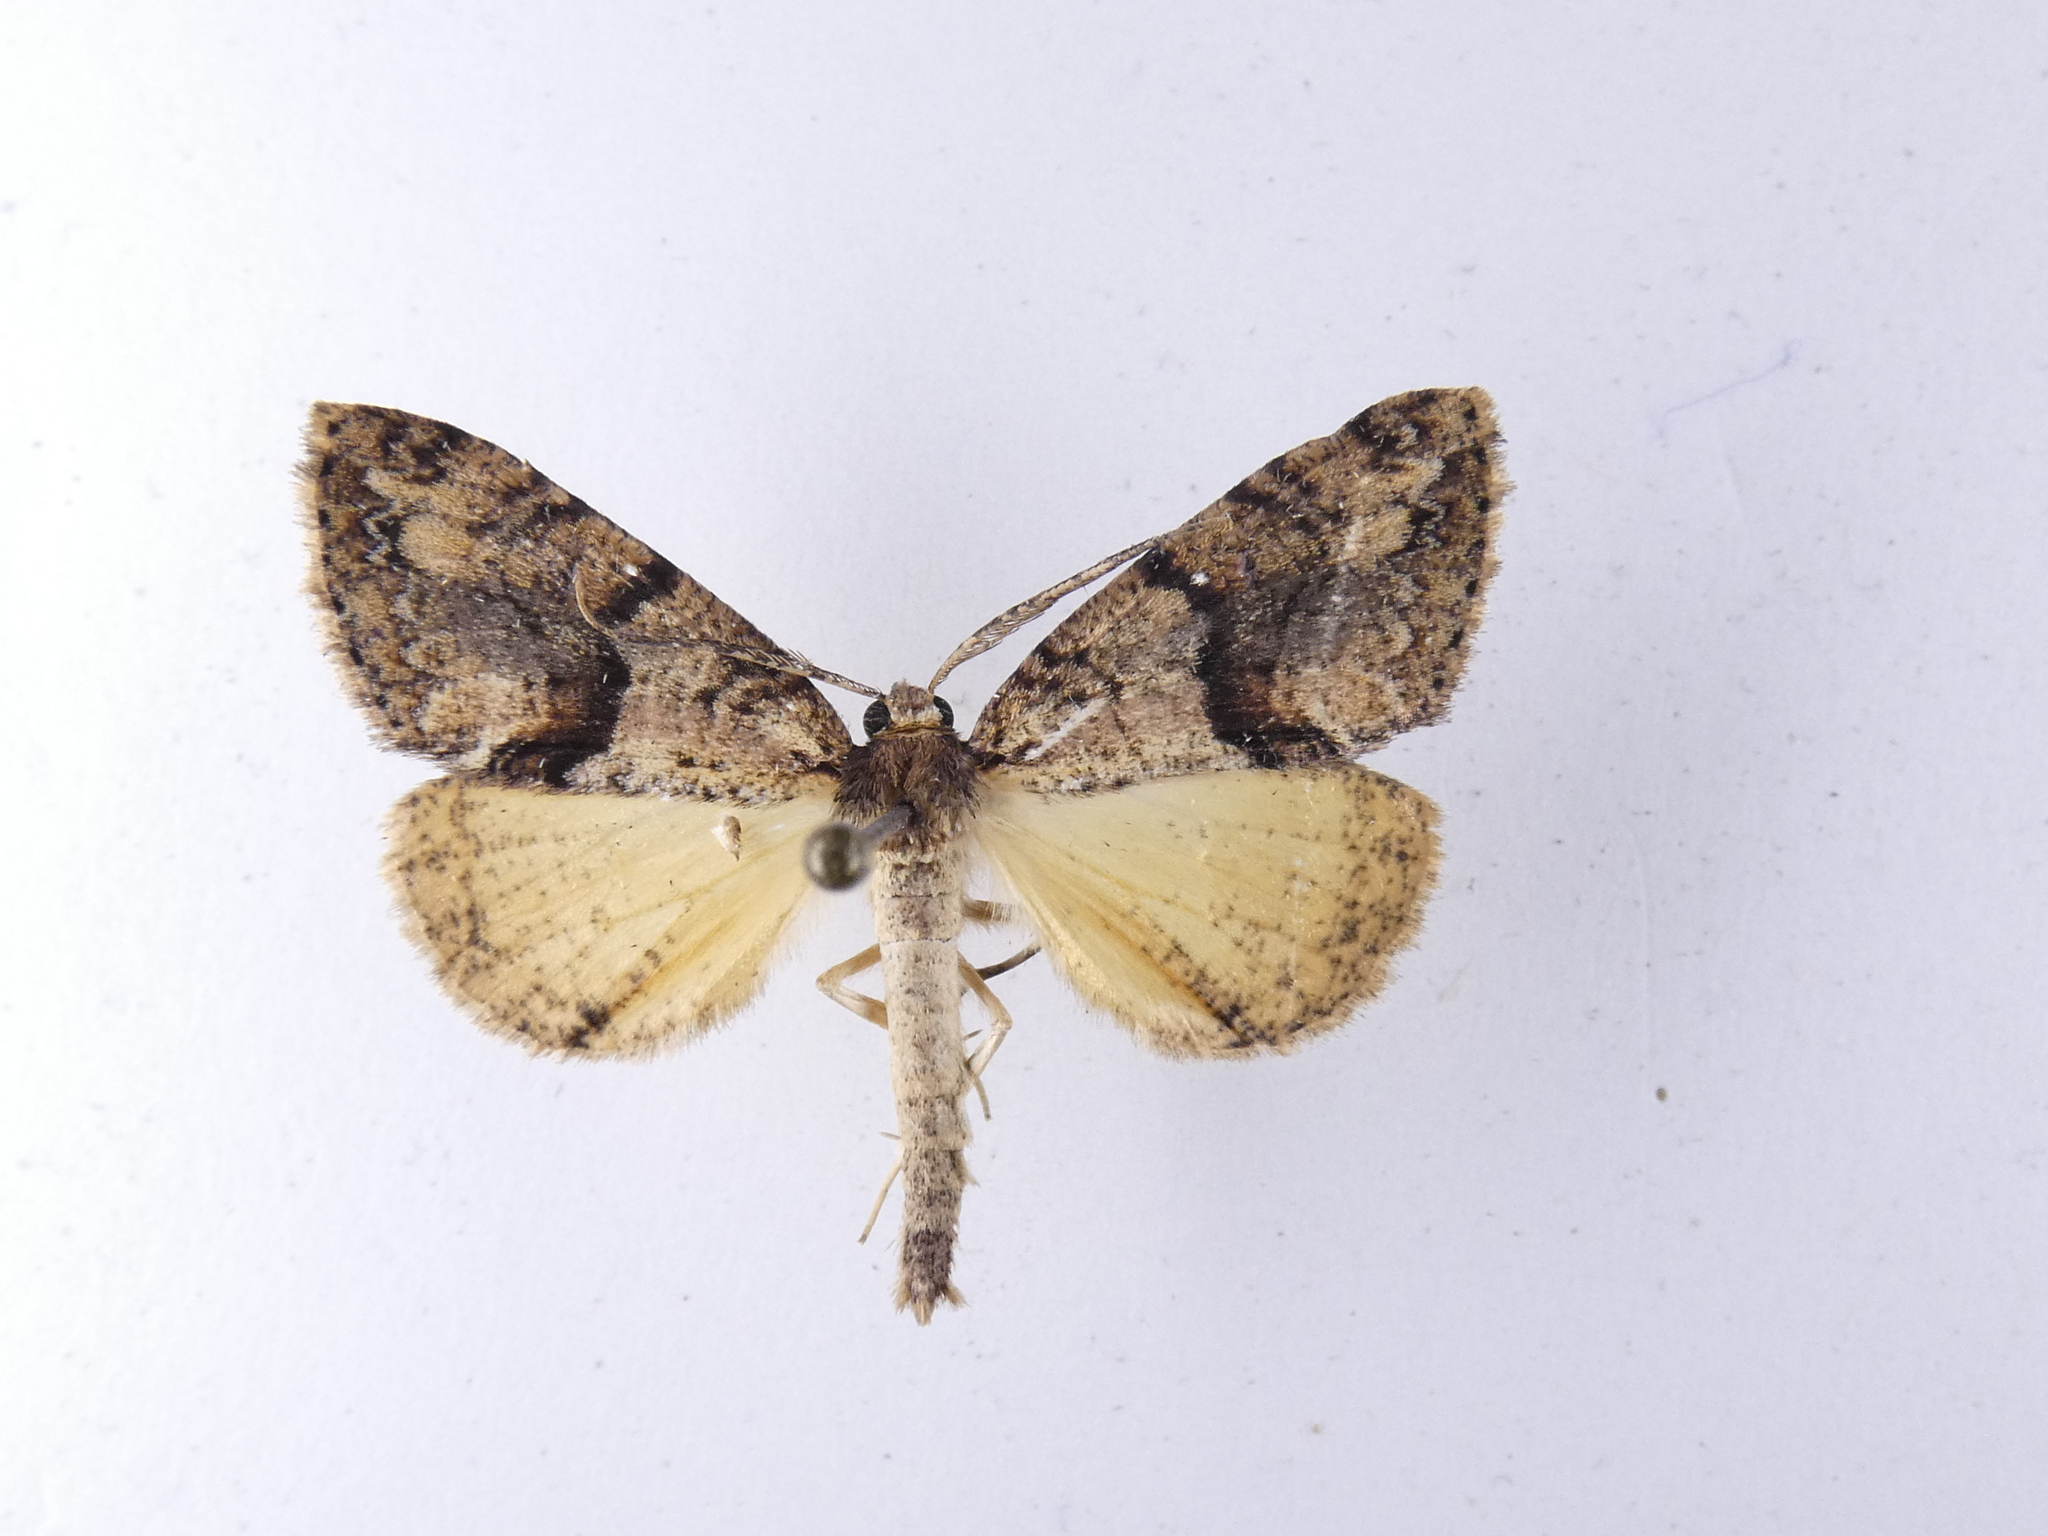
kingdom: Animalia
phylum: Arthropoda
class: Insecta
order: Lepidoptera
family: Geometridae
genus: Pseudocoremia
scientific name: Pseudocoremia suavis
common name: Common forest looper
